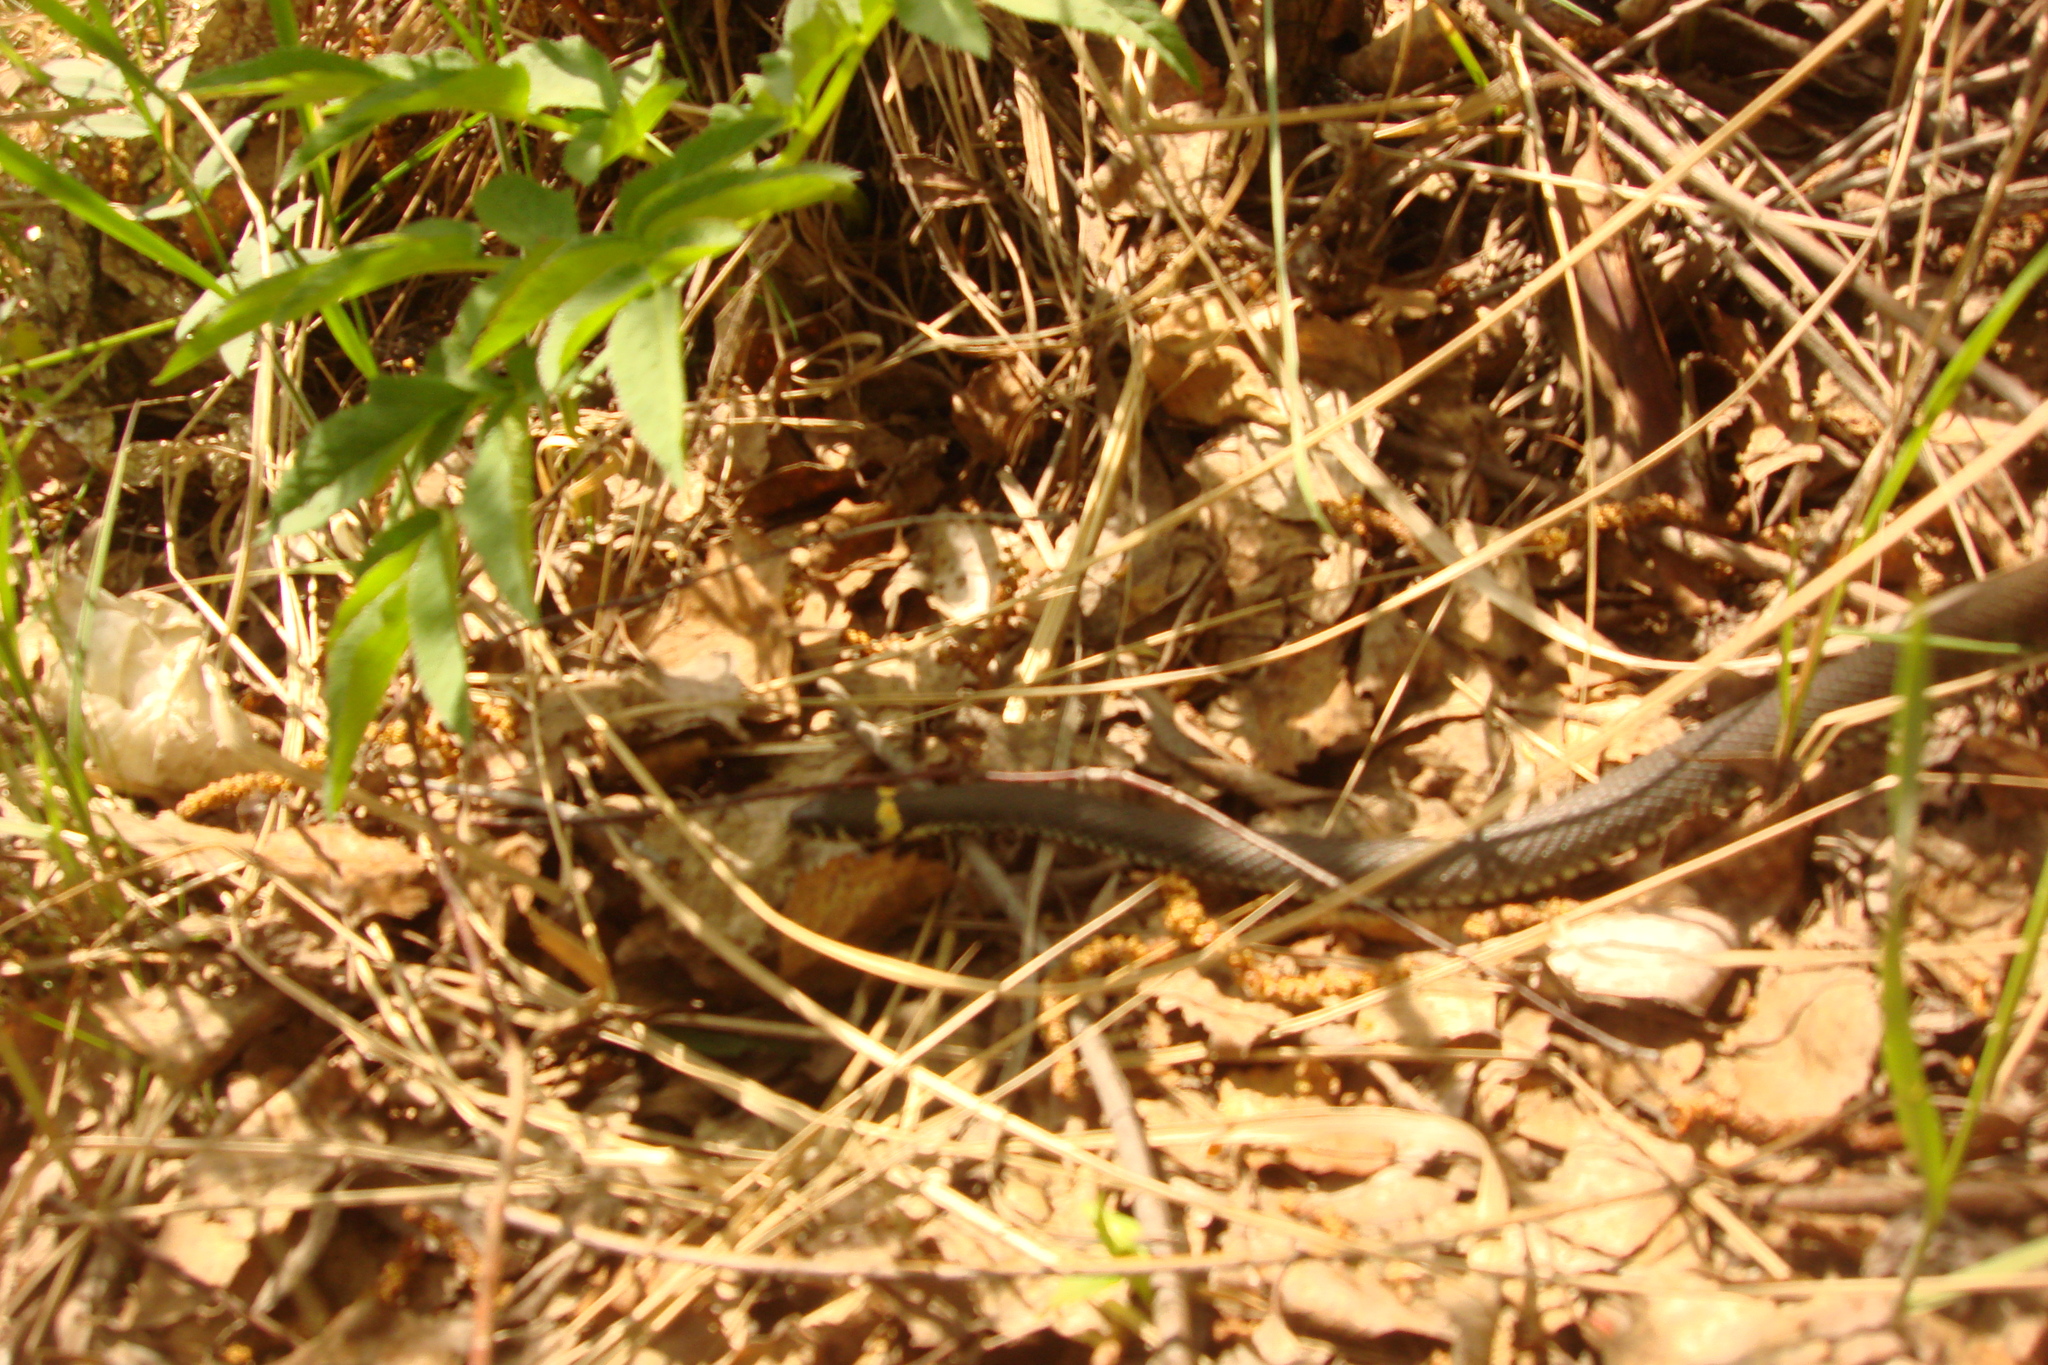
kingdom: Animalia
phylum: Chordata
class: Squamata
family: Colubridae
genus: Natrix
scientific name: Natrix natrix
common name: Grass snake
